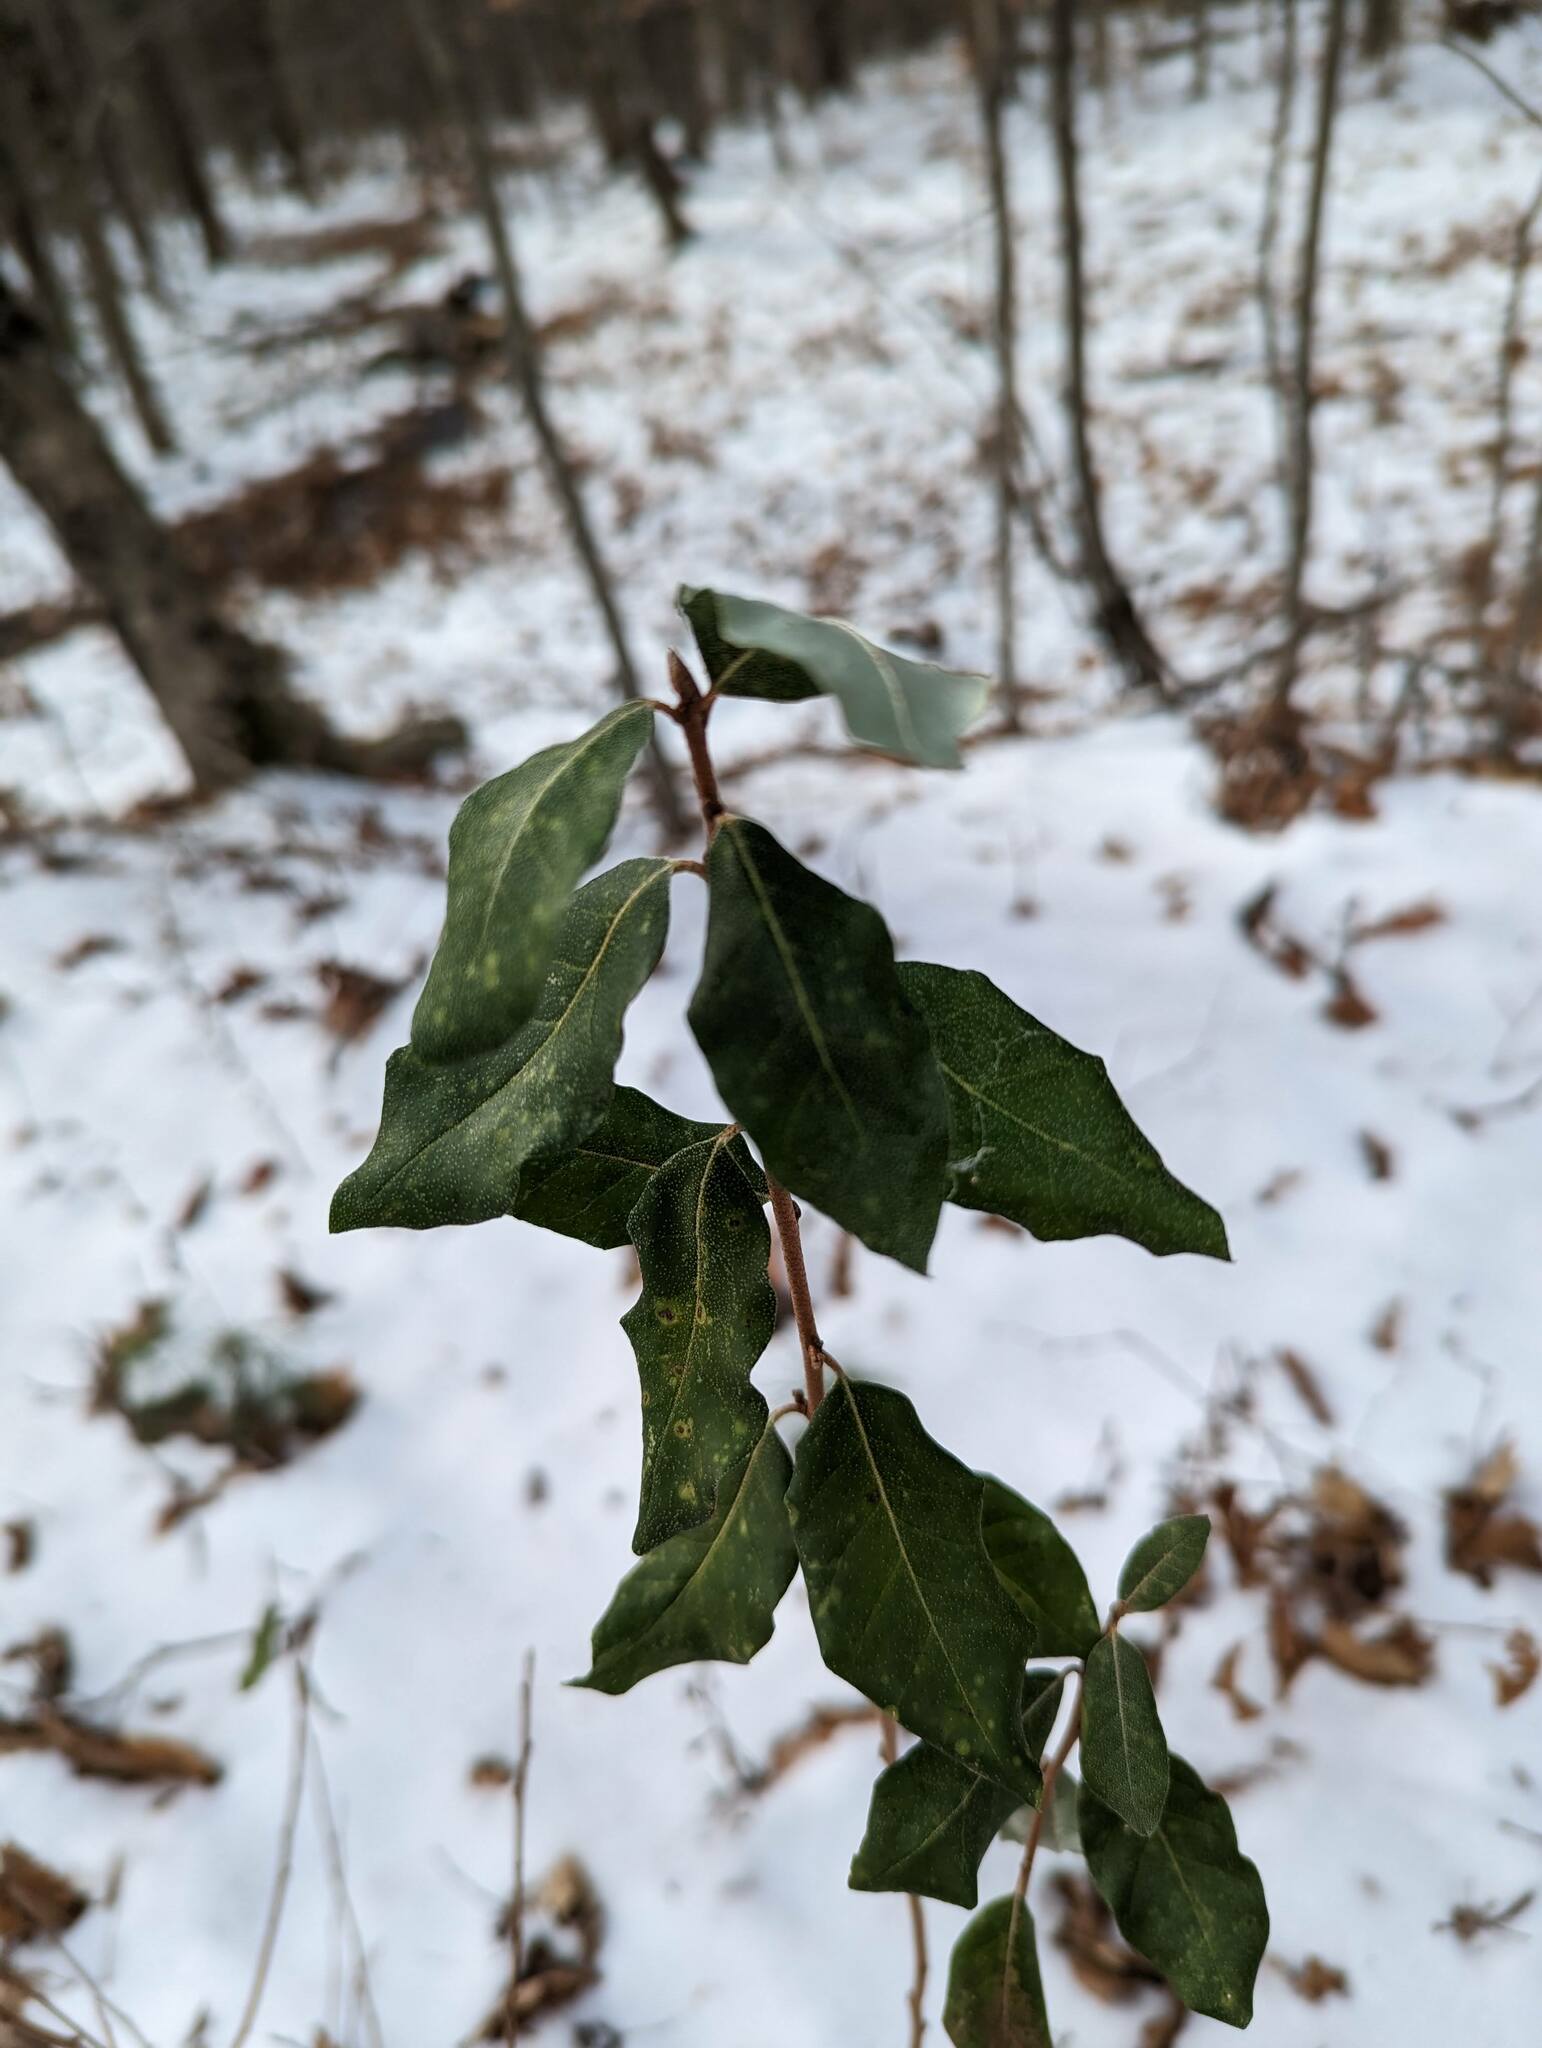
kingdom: Plantae
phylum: Tracheophyta
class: Magnoliopsida
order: Rosales
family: Elaeagnaceae
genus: Elaeagnus
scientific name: Elaeagnus umbellata
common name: Autumn olive
